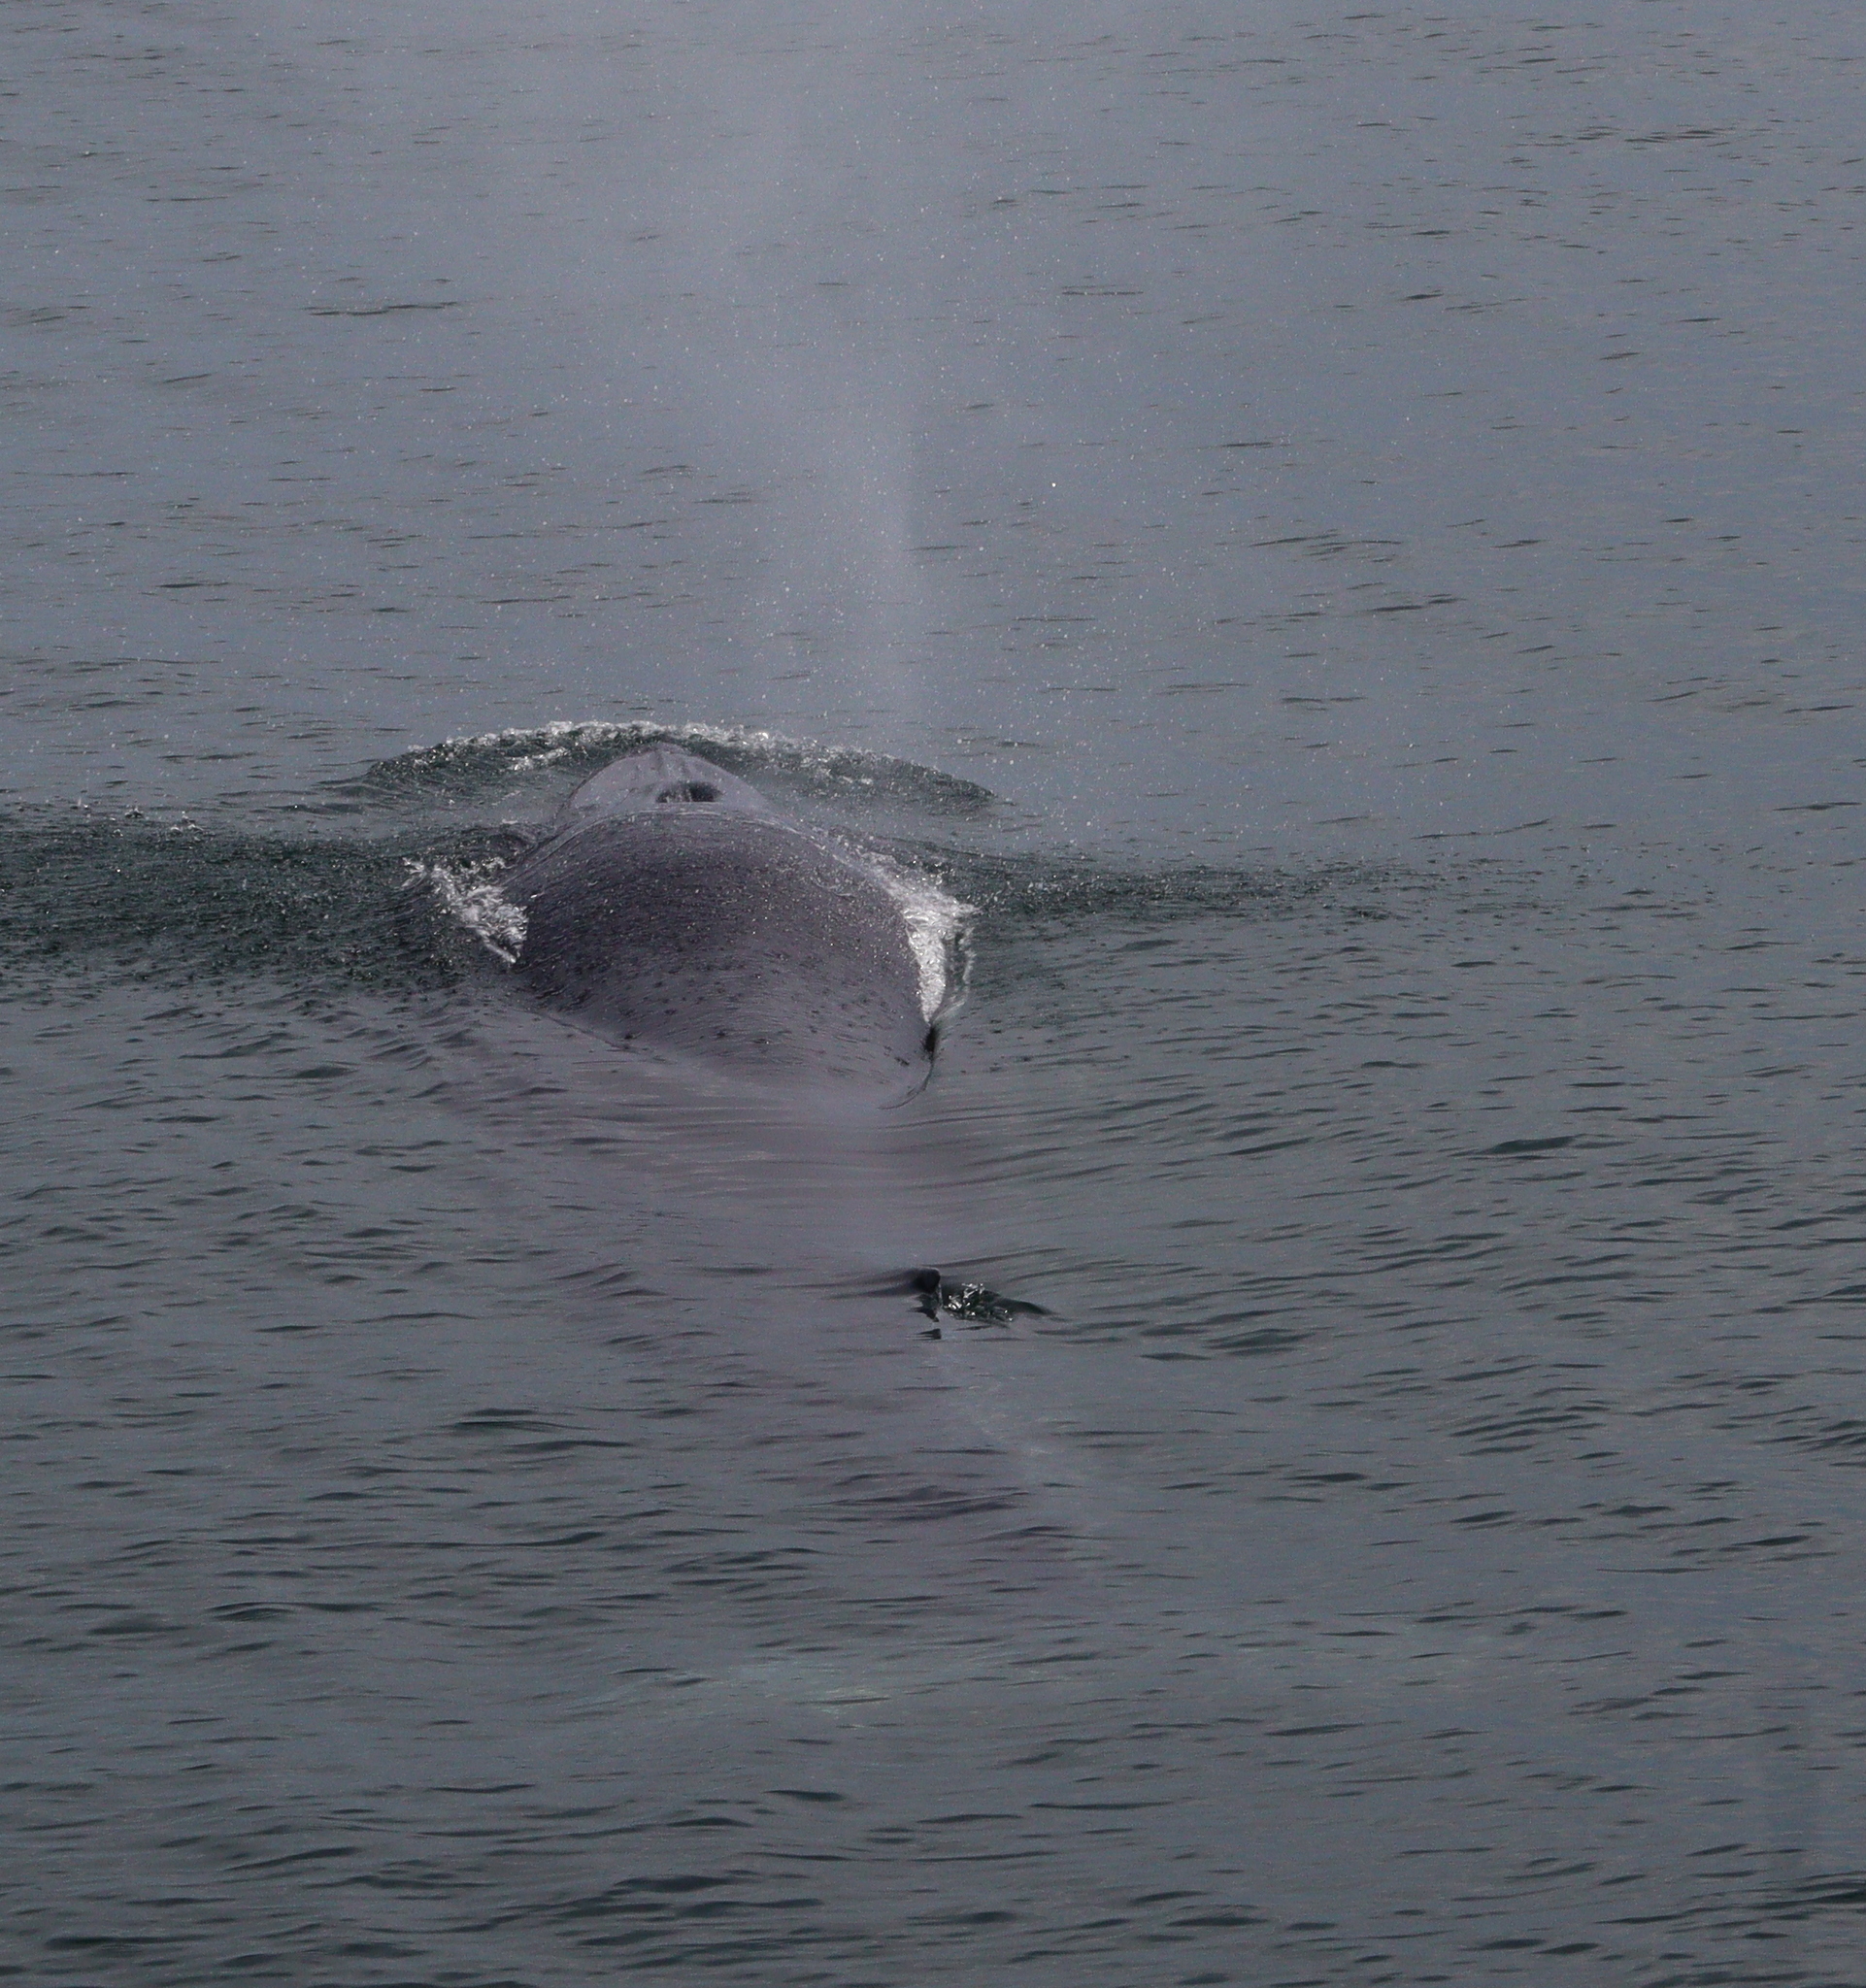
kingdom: Animalia
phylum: Chordata
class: Mammalia
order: Cetacea
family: Balaenopteridae
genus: Balaenoptera
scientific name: Balaenoptera edeni
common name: Bryde's whale
